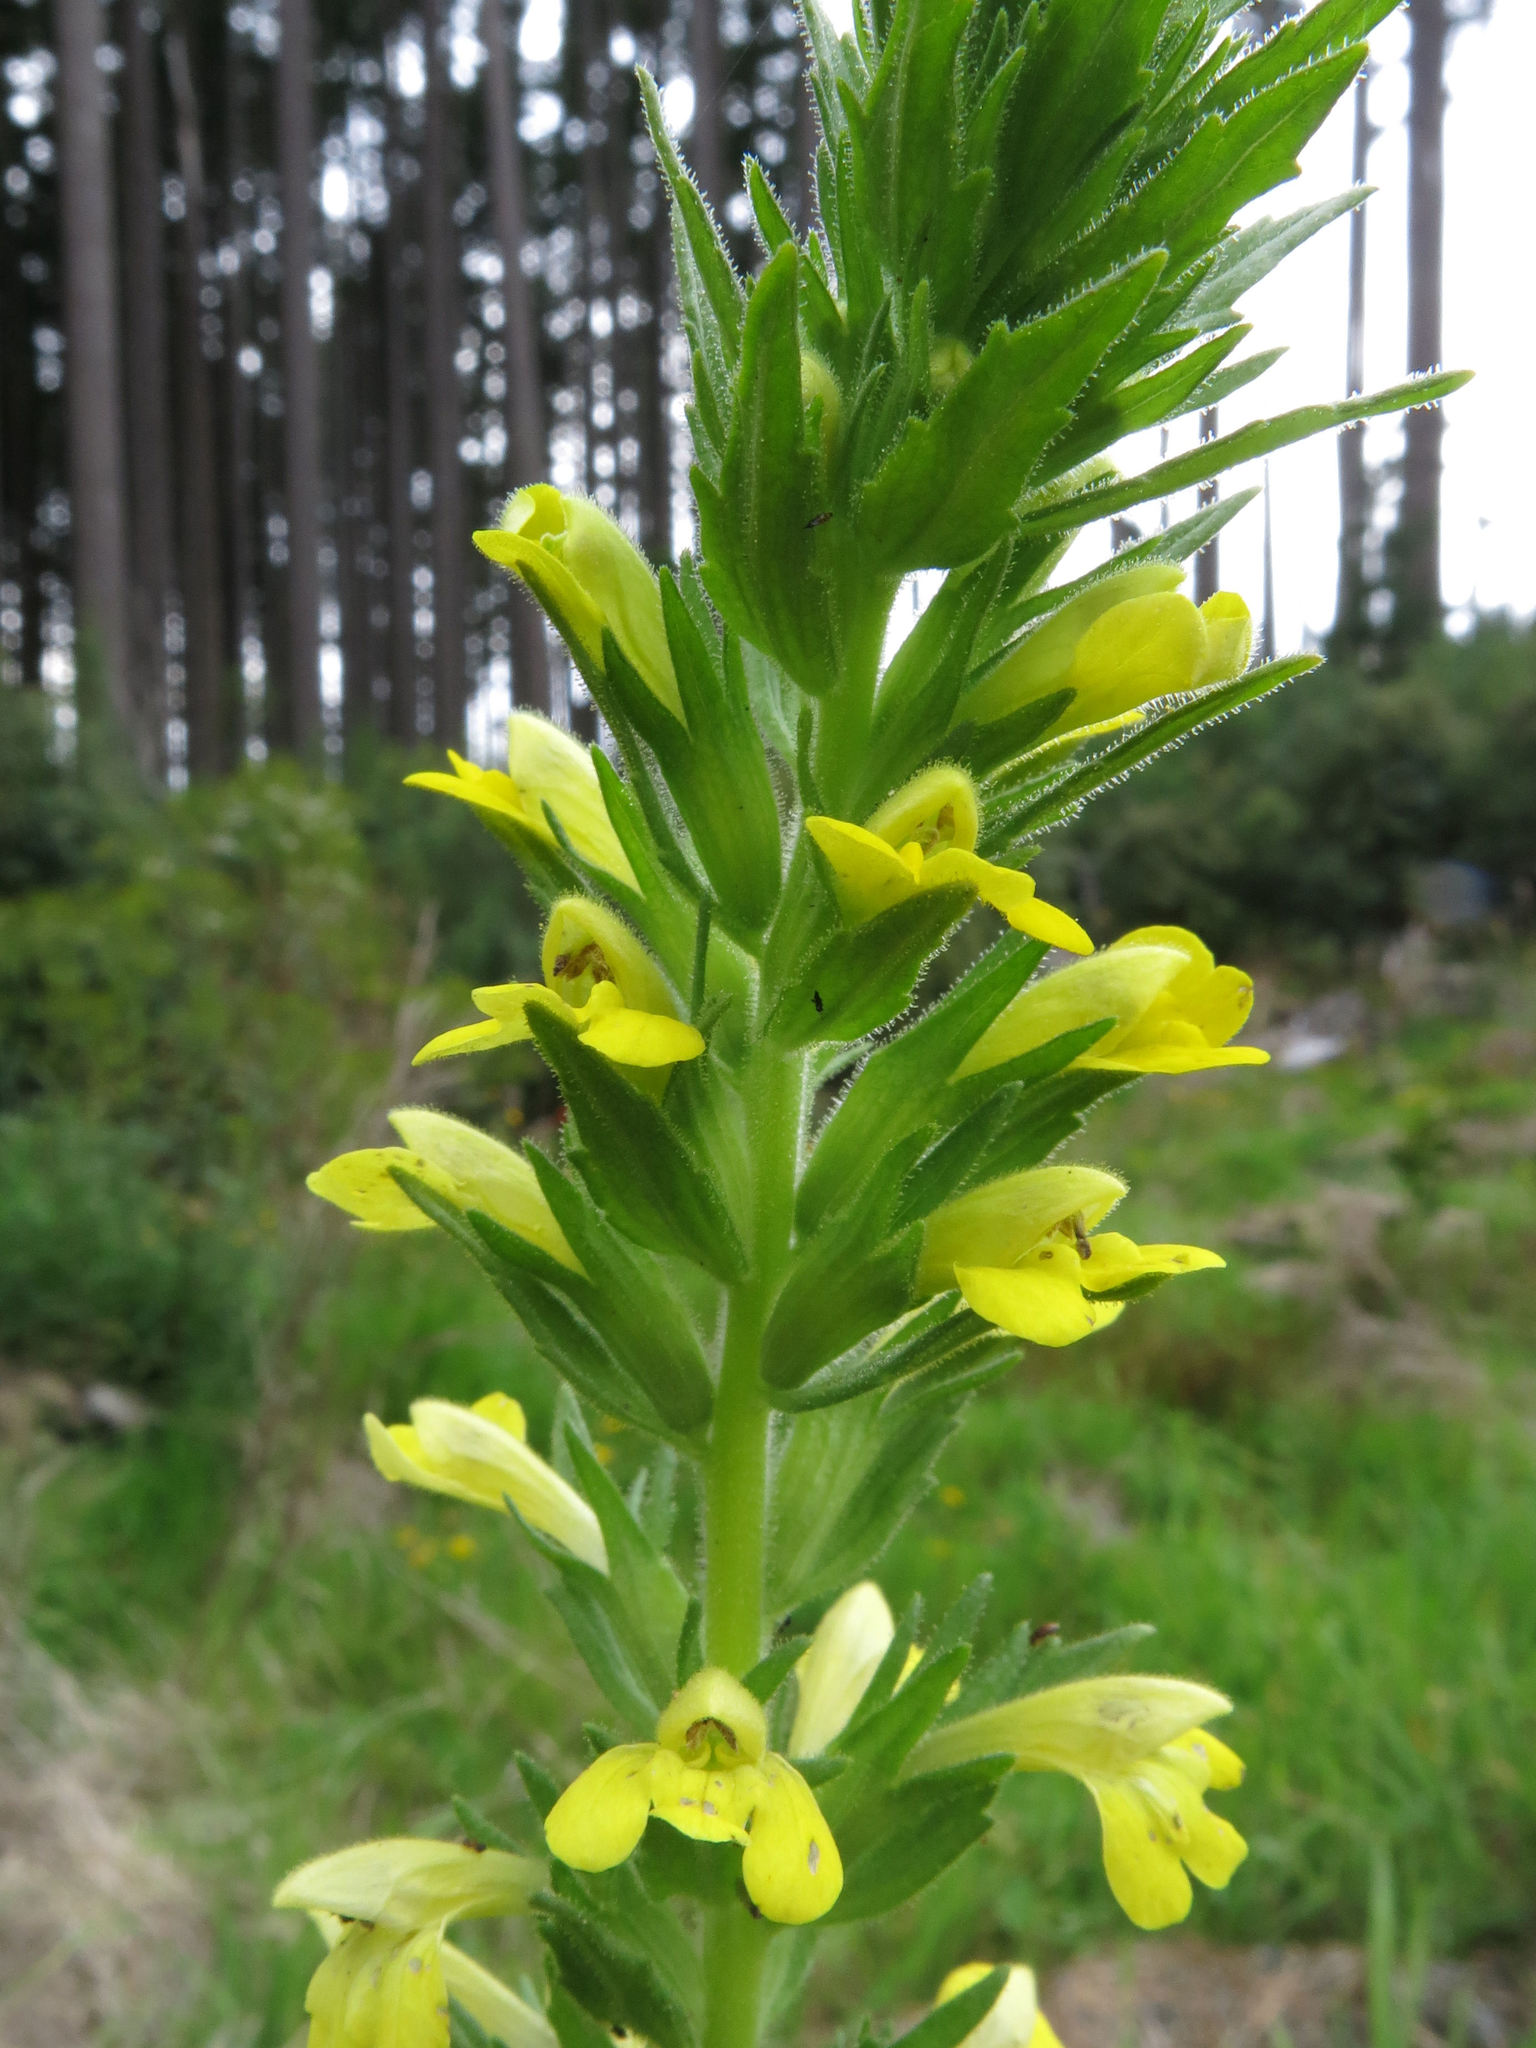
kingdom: Plantae
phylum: Tracheophyta
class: Magnoliopsida
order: Lamiales
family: Orobanchaceae
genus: Bellardia
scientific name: Bellardia viscosa
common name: Sticky parentucellia
